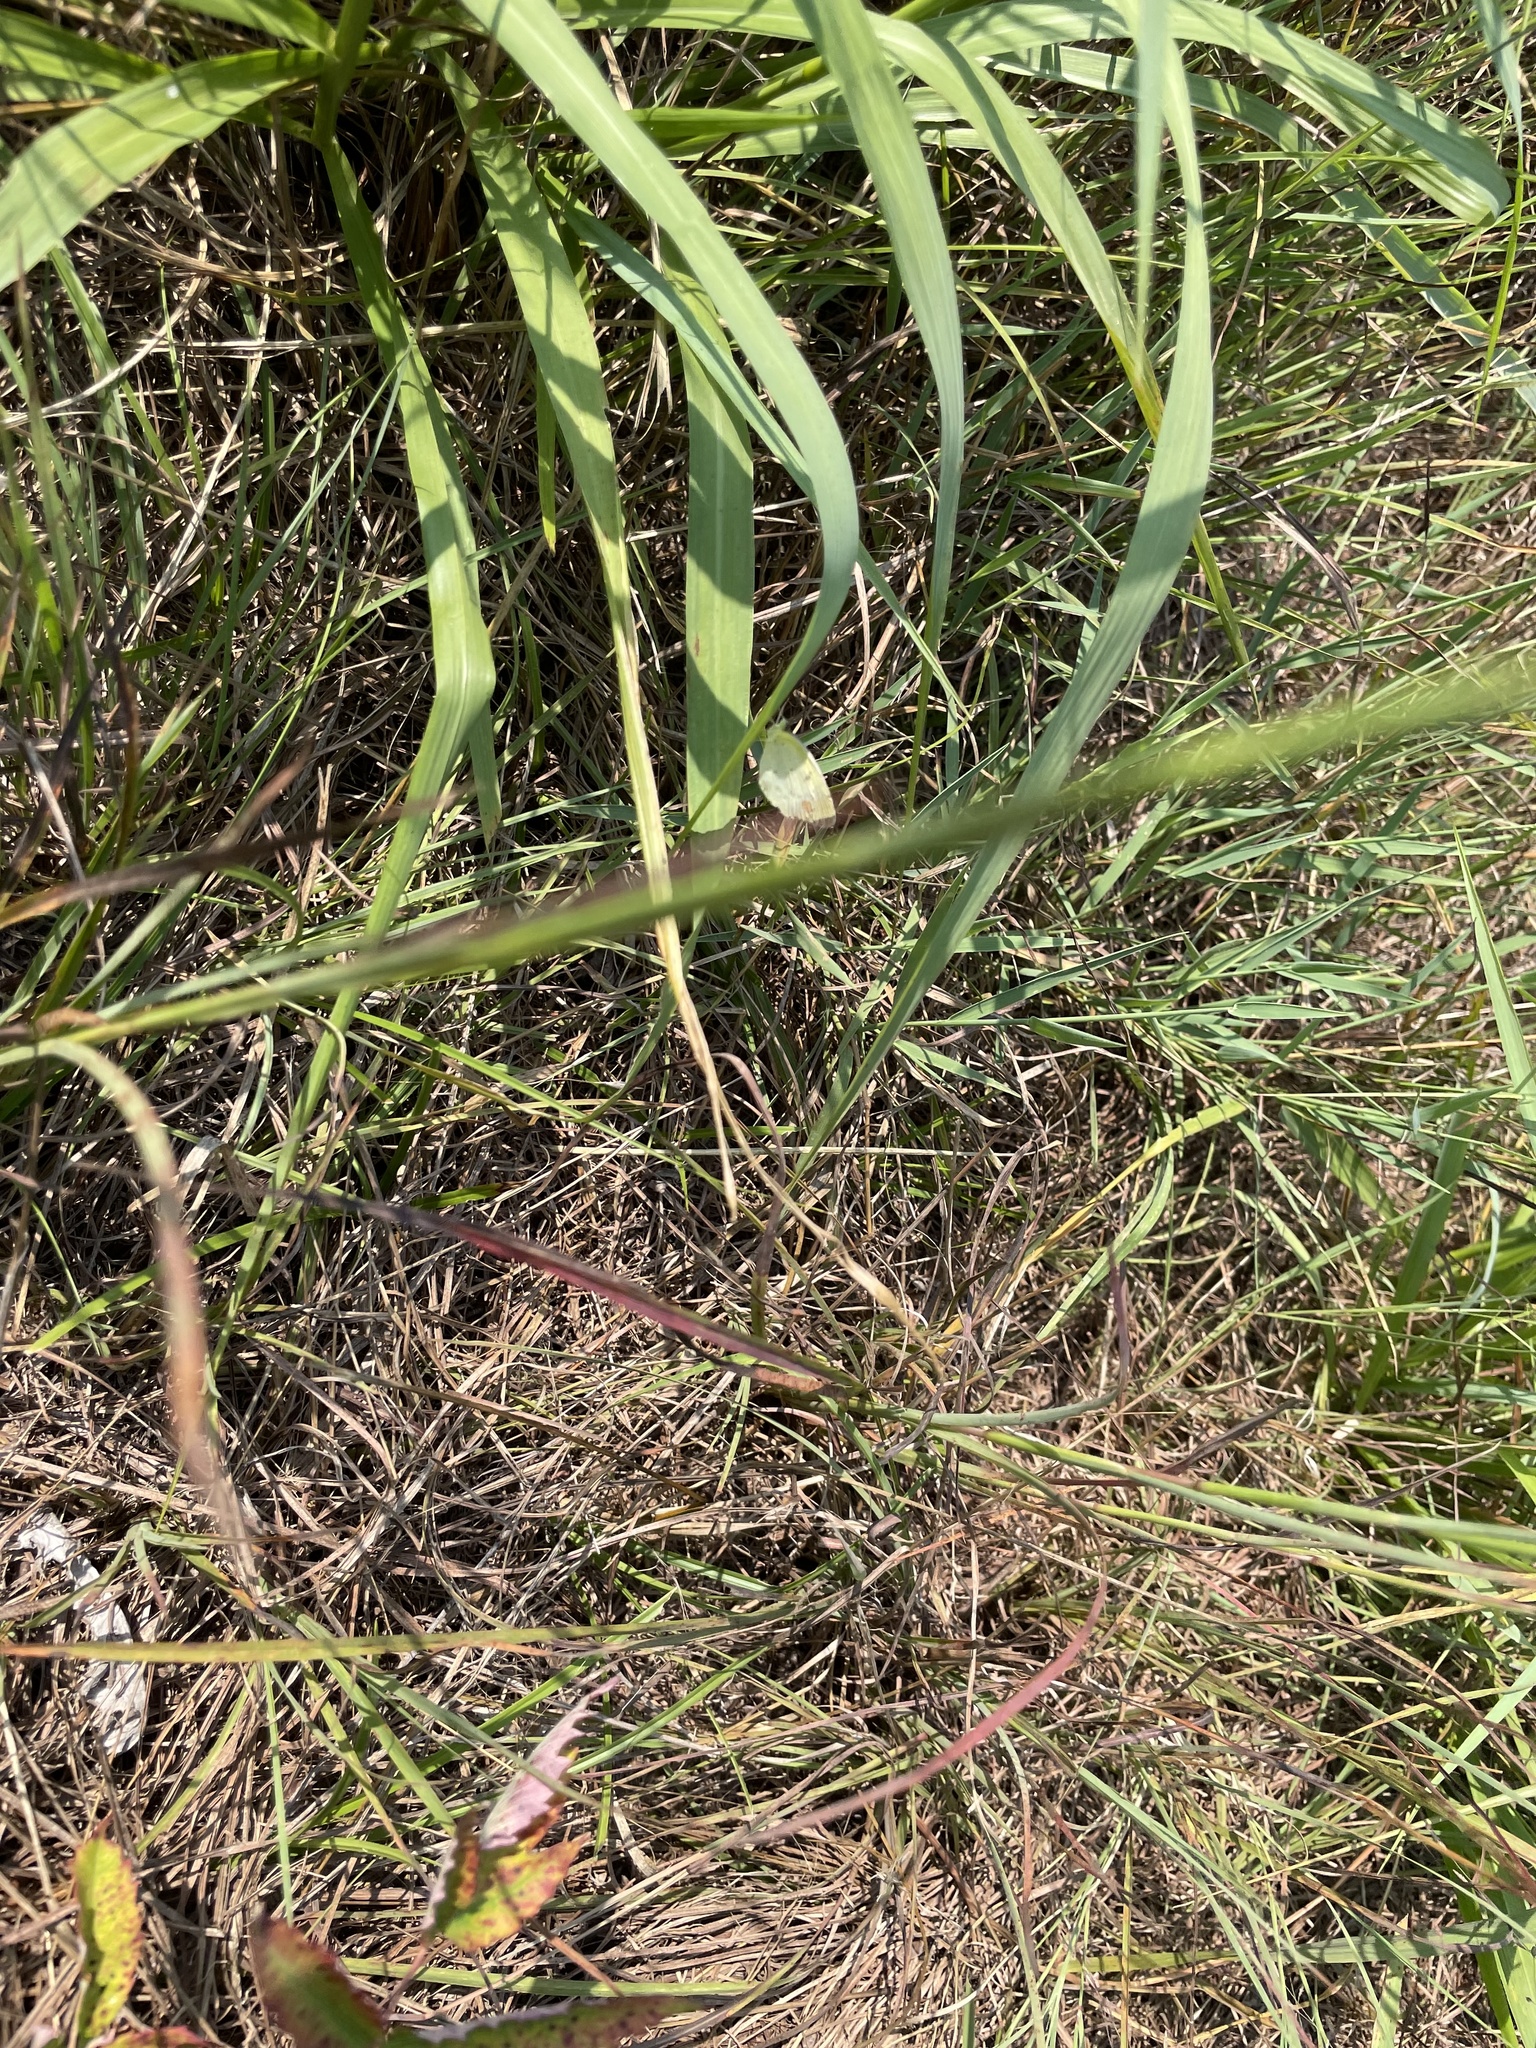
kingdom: Animalia
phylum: Arthropoda
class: Insecta
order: Lepidoptera
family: Pieridae
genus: Pyrisitia
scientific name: Pyrisitia lisa
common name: Little yellow
